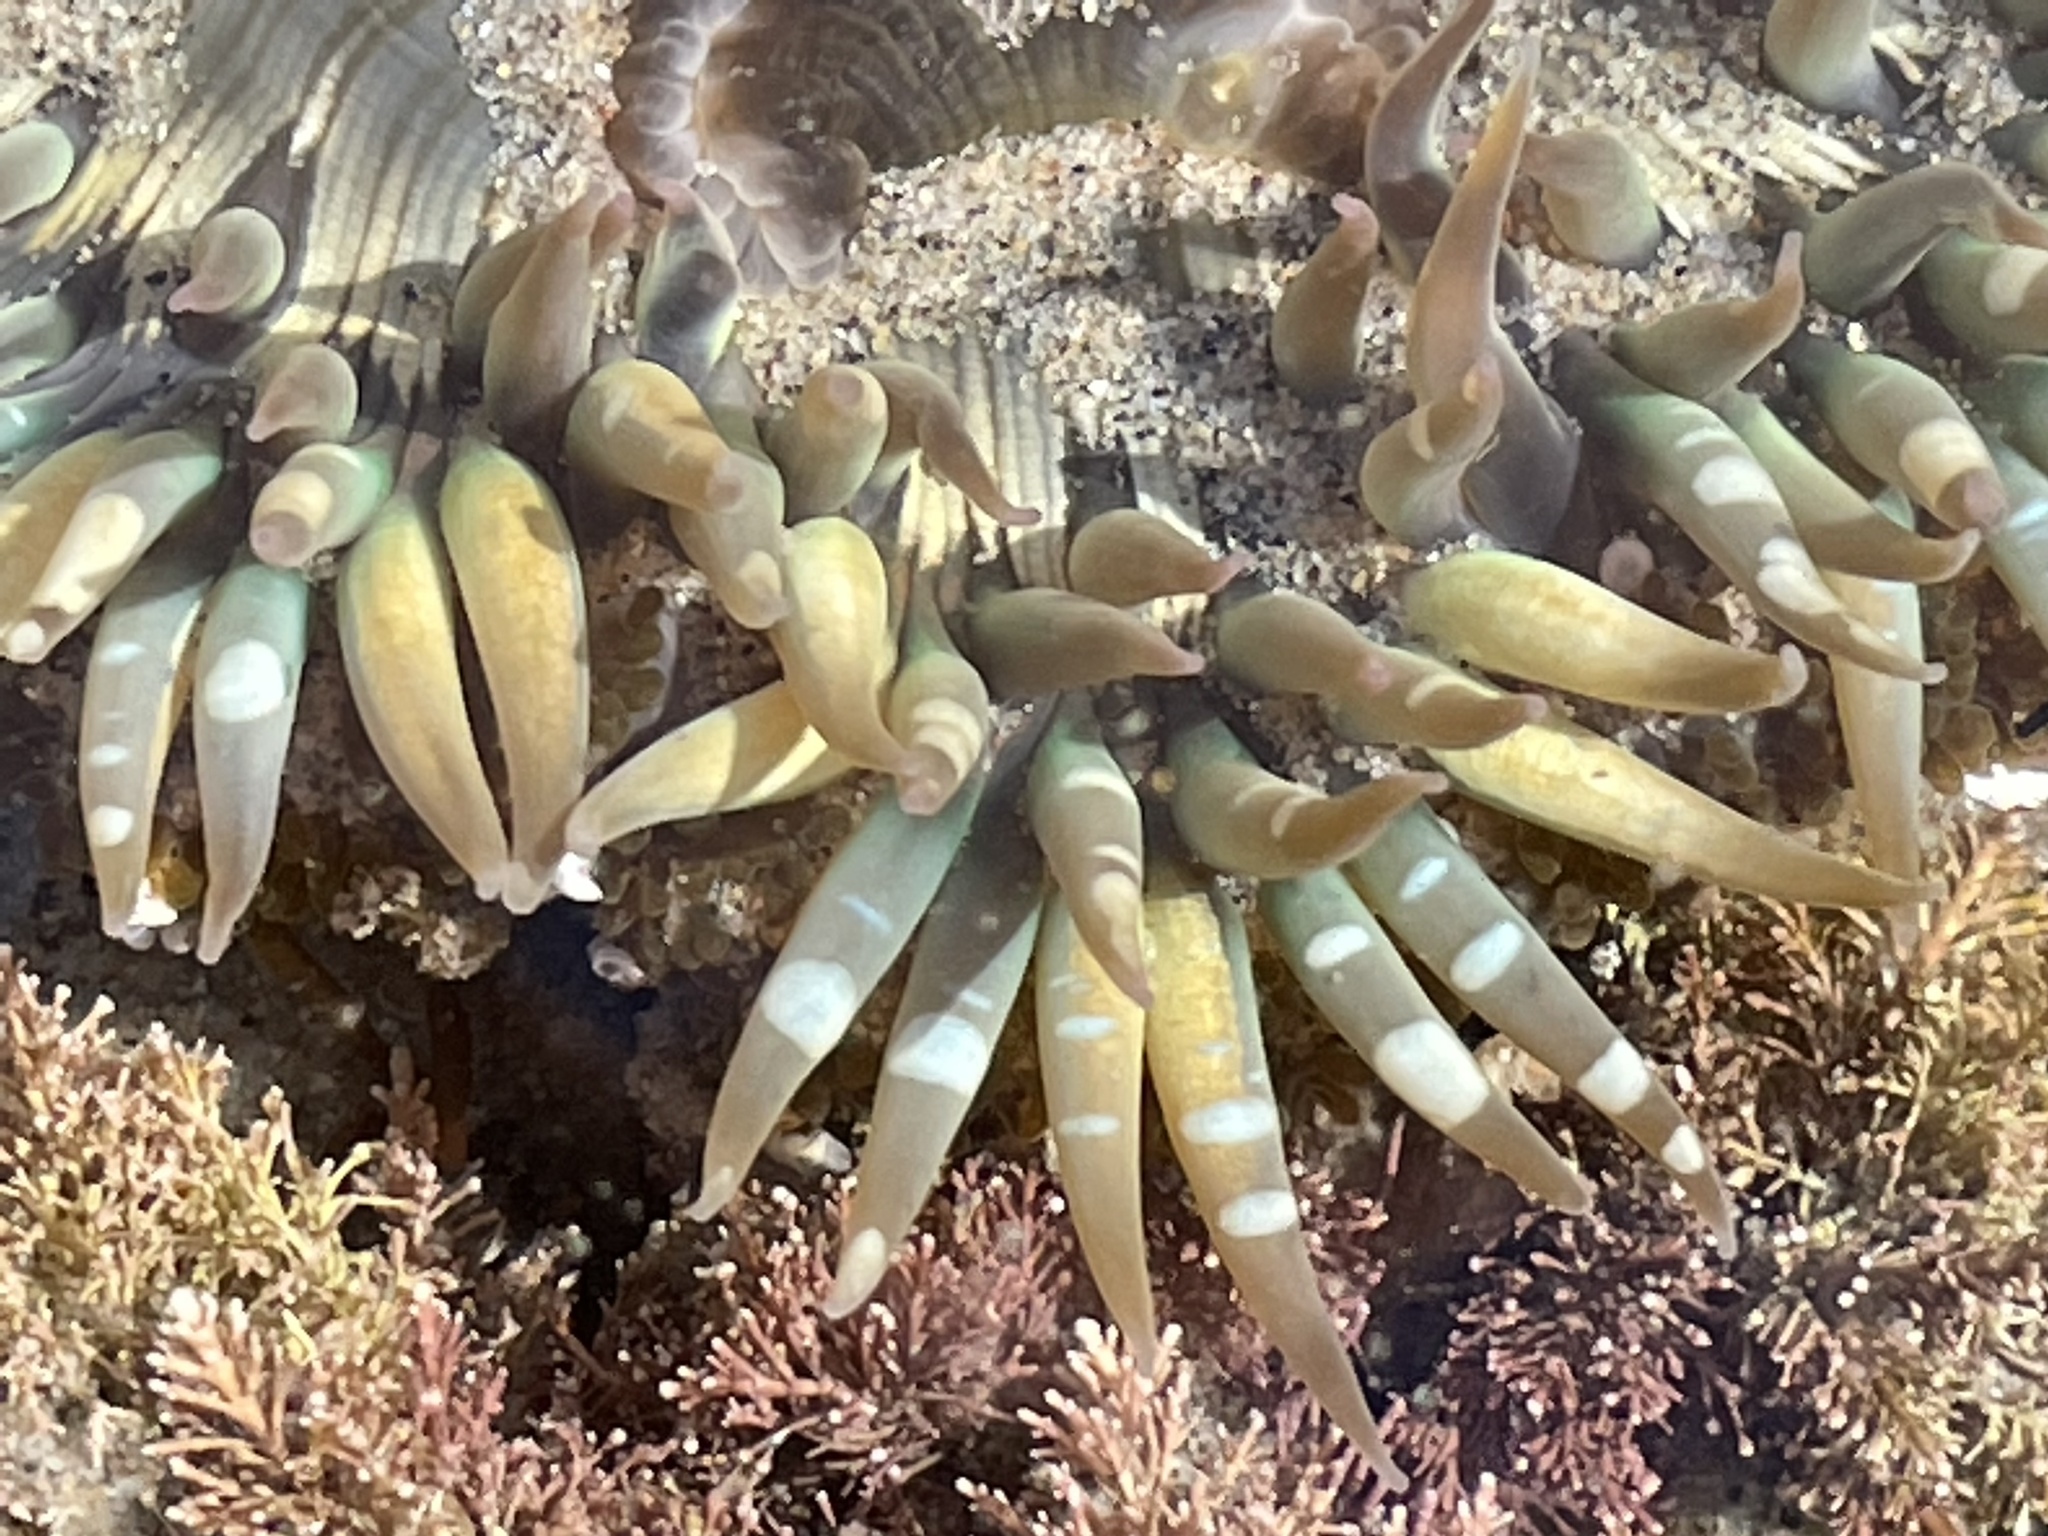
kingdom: Animalia
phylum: Cnidaria
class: Anthozoa
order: Actiniaria
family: Actiniidae
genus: Anthopleura
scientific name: Anthopleura sola
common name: Sun anemone
